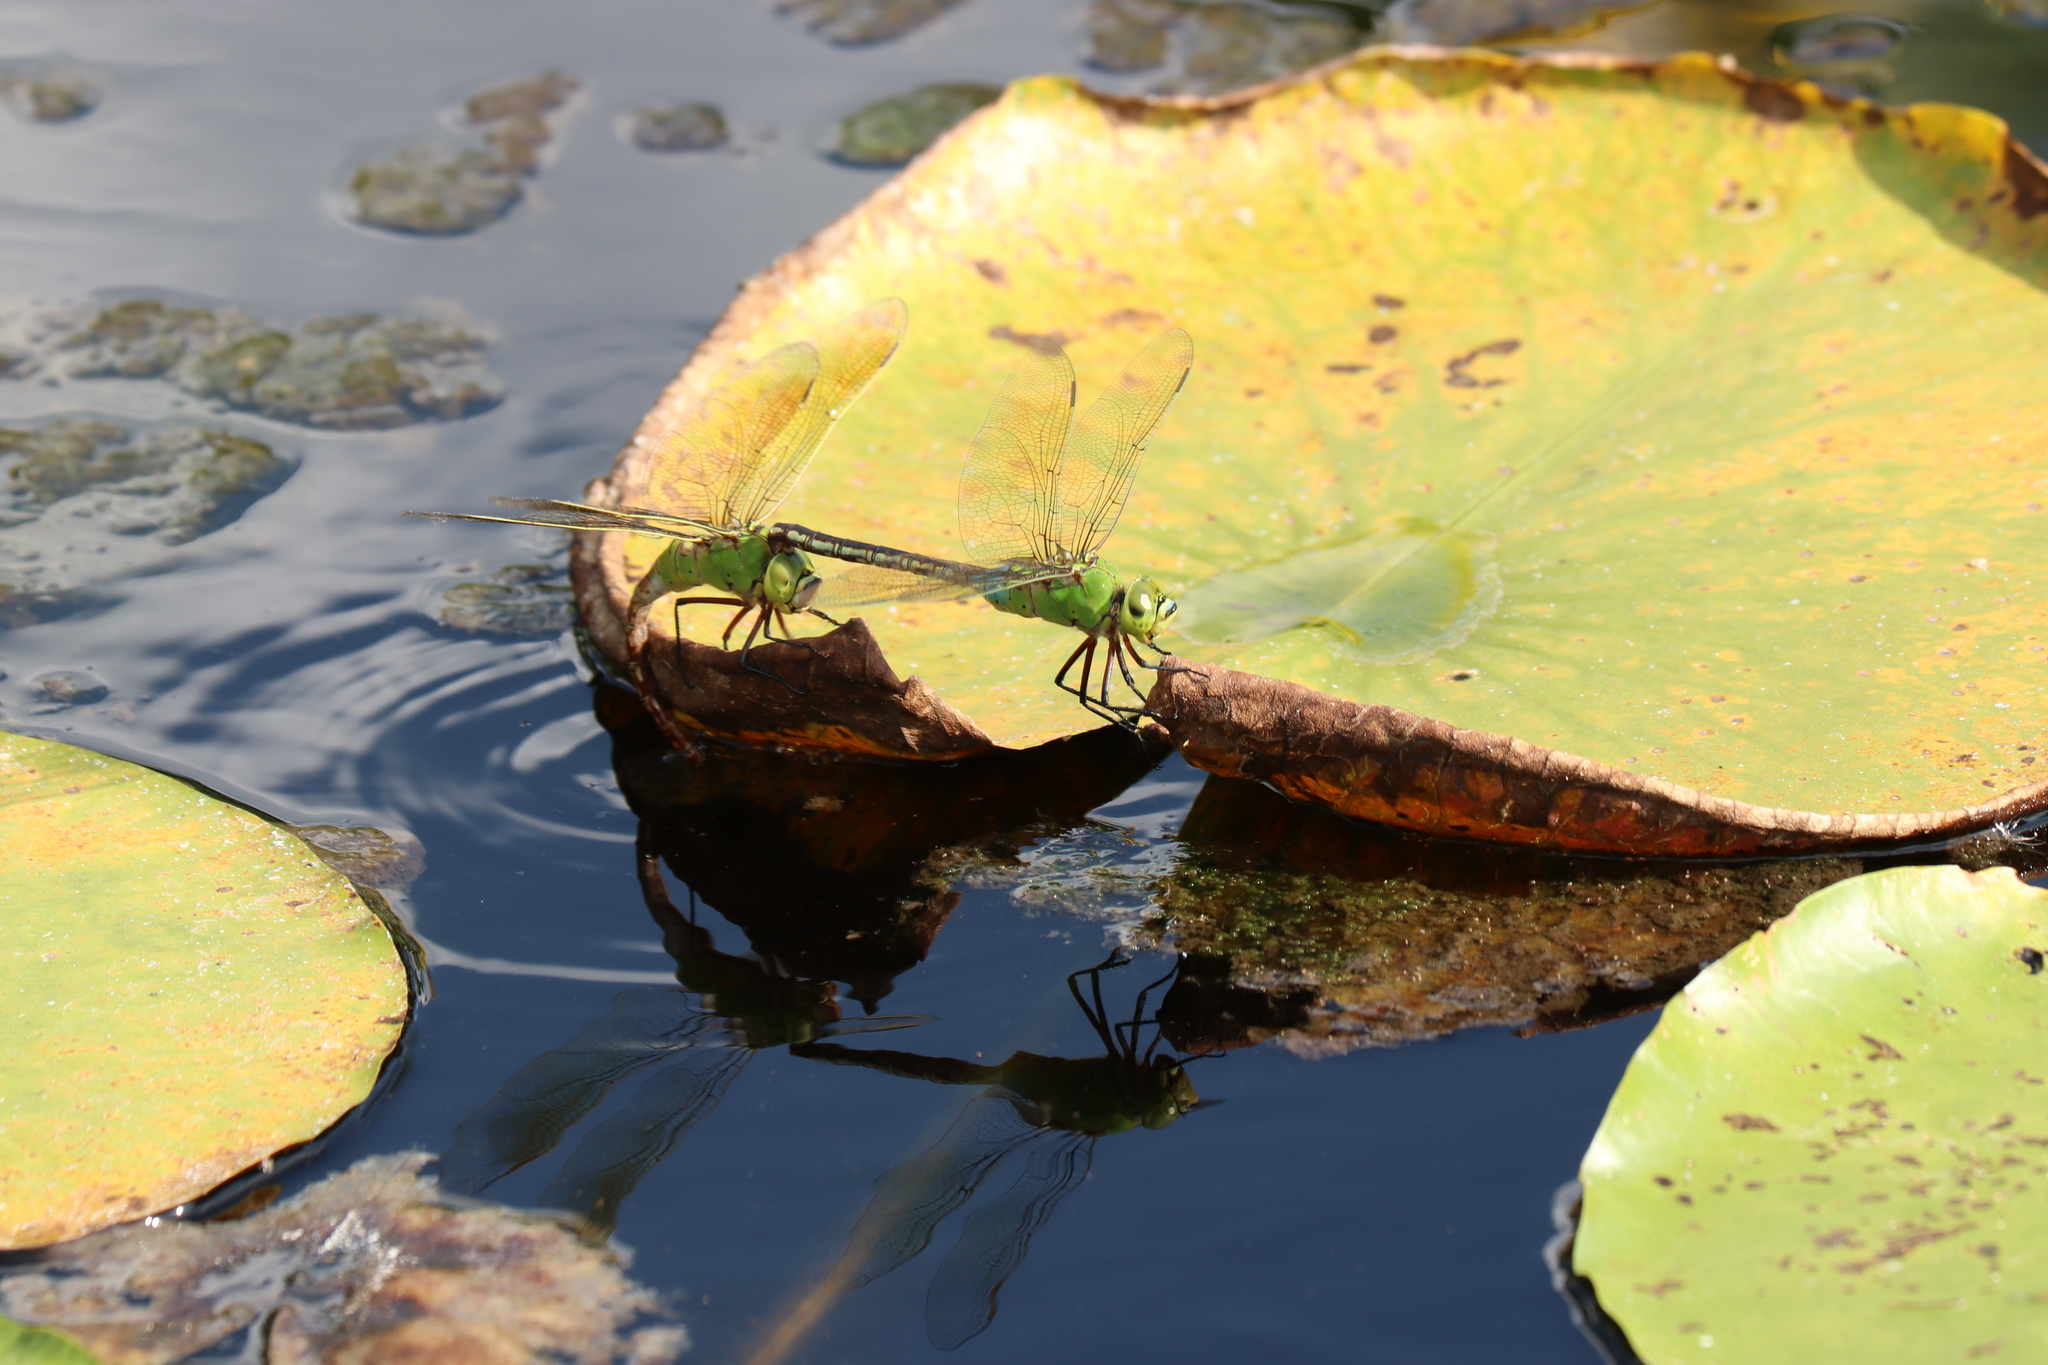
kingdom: Animalia
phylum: Arthropoda
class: Insecta
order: Odonata
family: Aeshnidae
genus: Anax
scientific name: Anax julius
